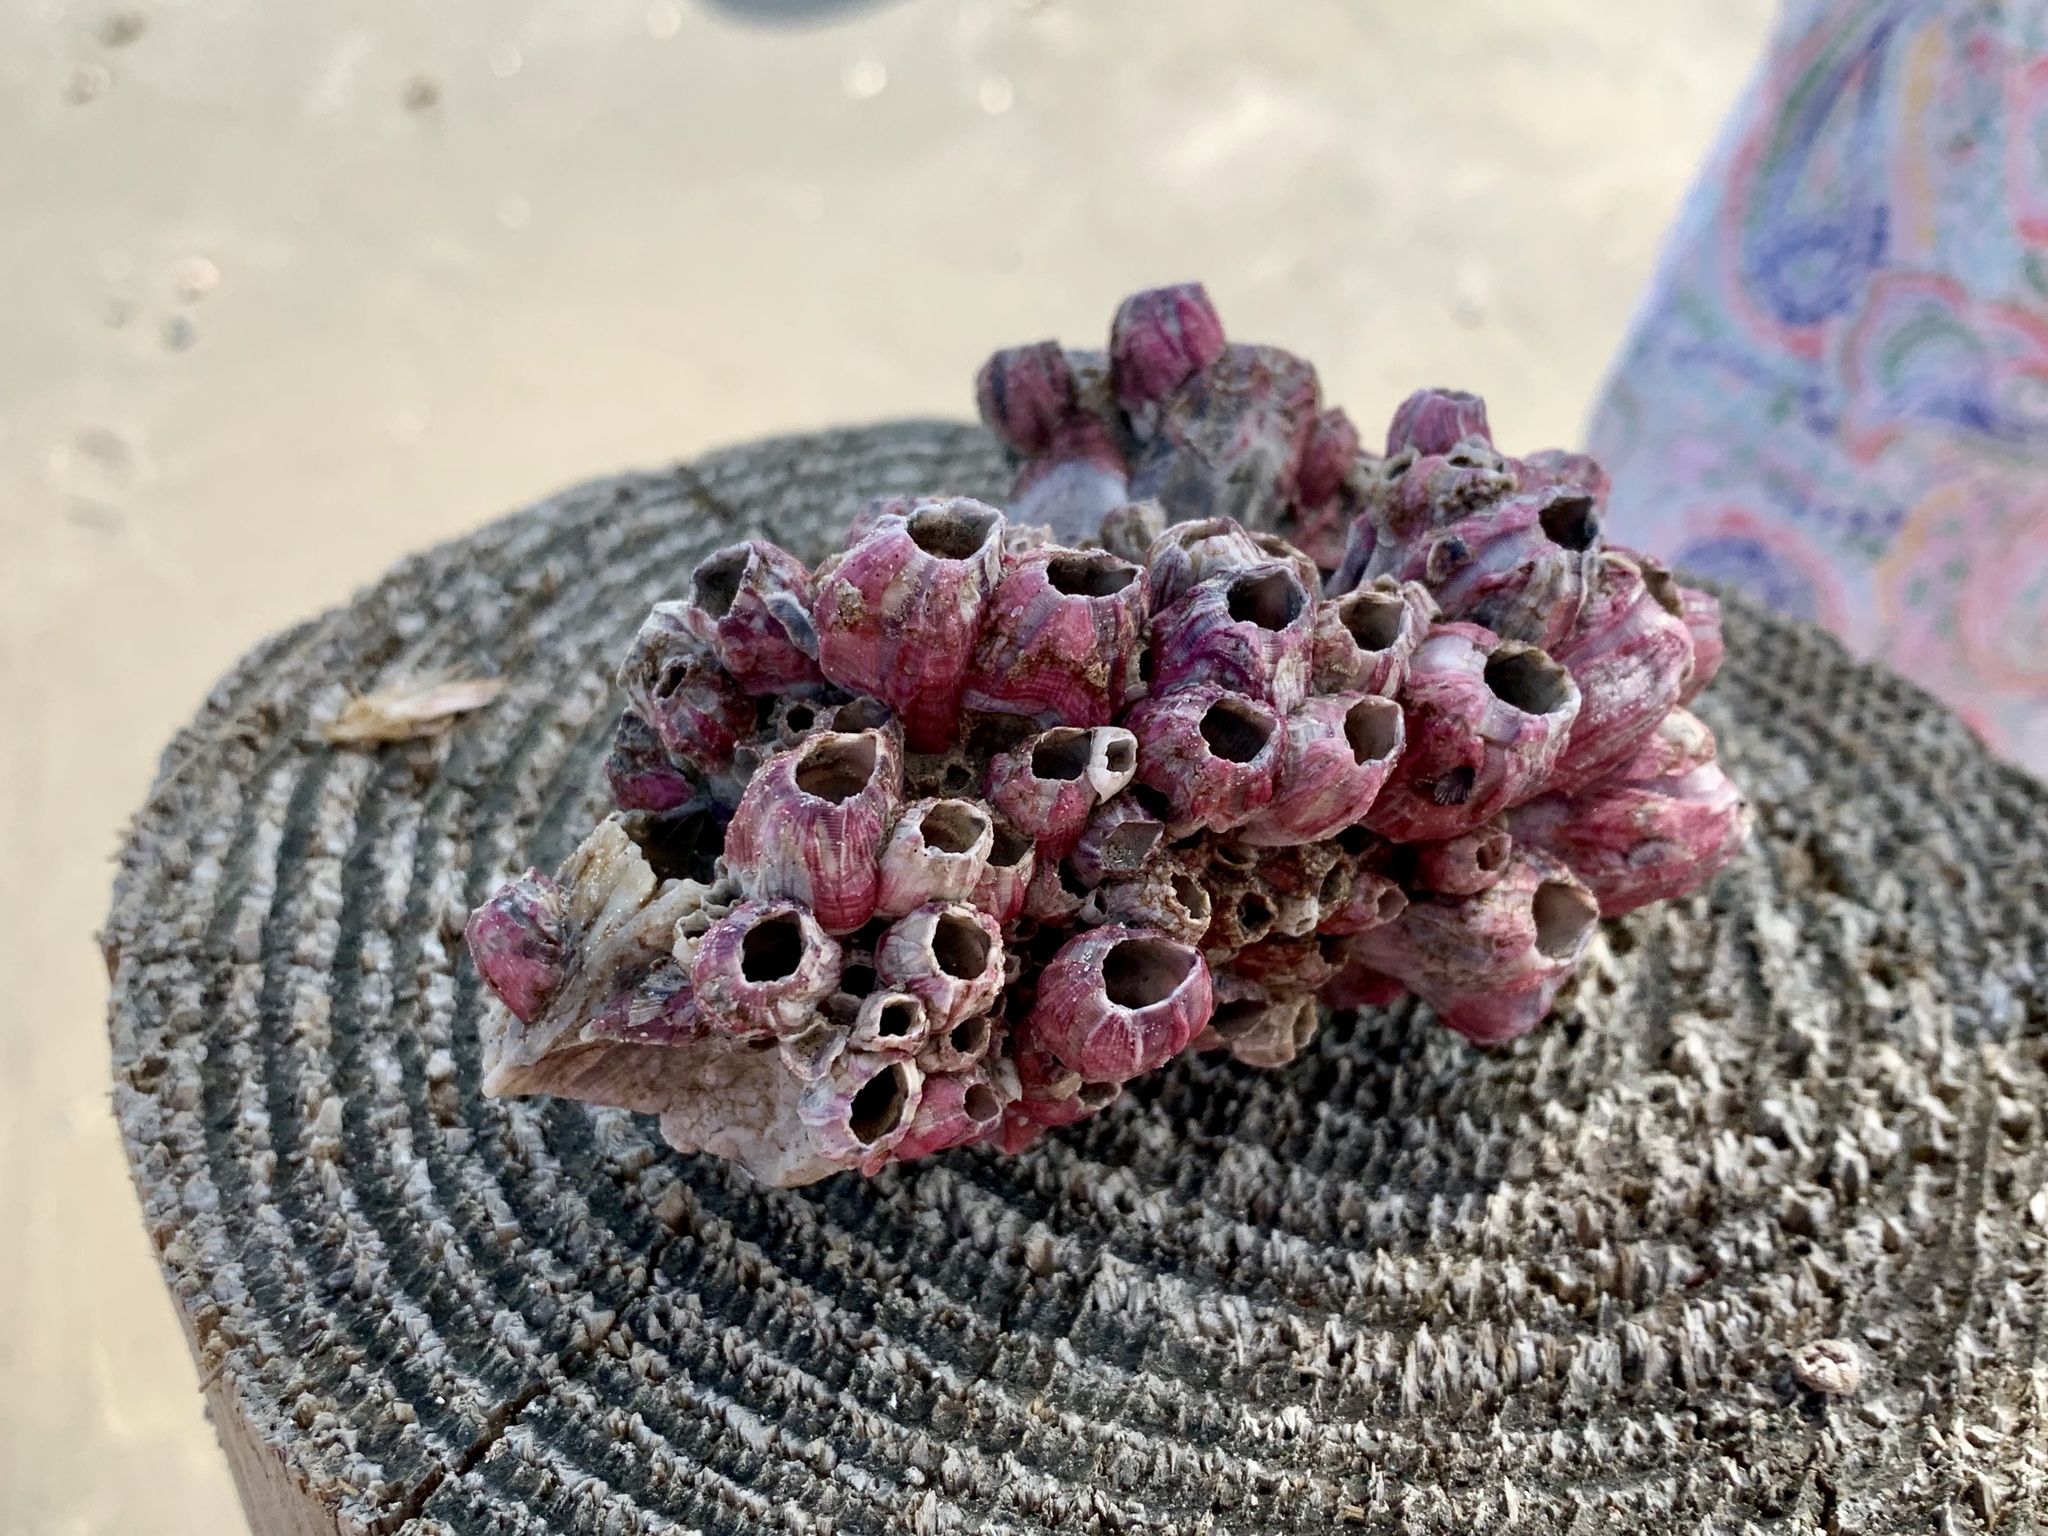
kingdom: Animalia
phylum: Arthropoda
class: Maxillopoda
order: Sessilia
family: Balanidae
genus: Megabalanus
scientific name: Megabalanus tintinnabulum
